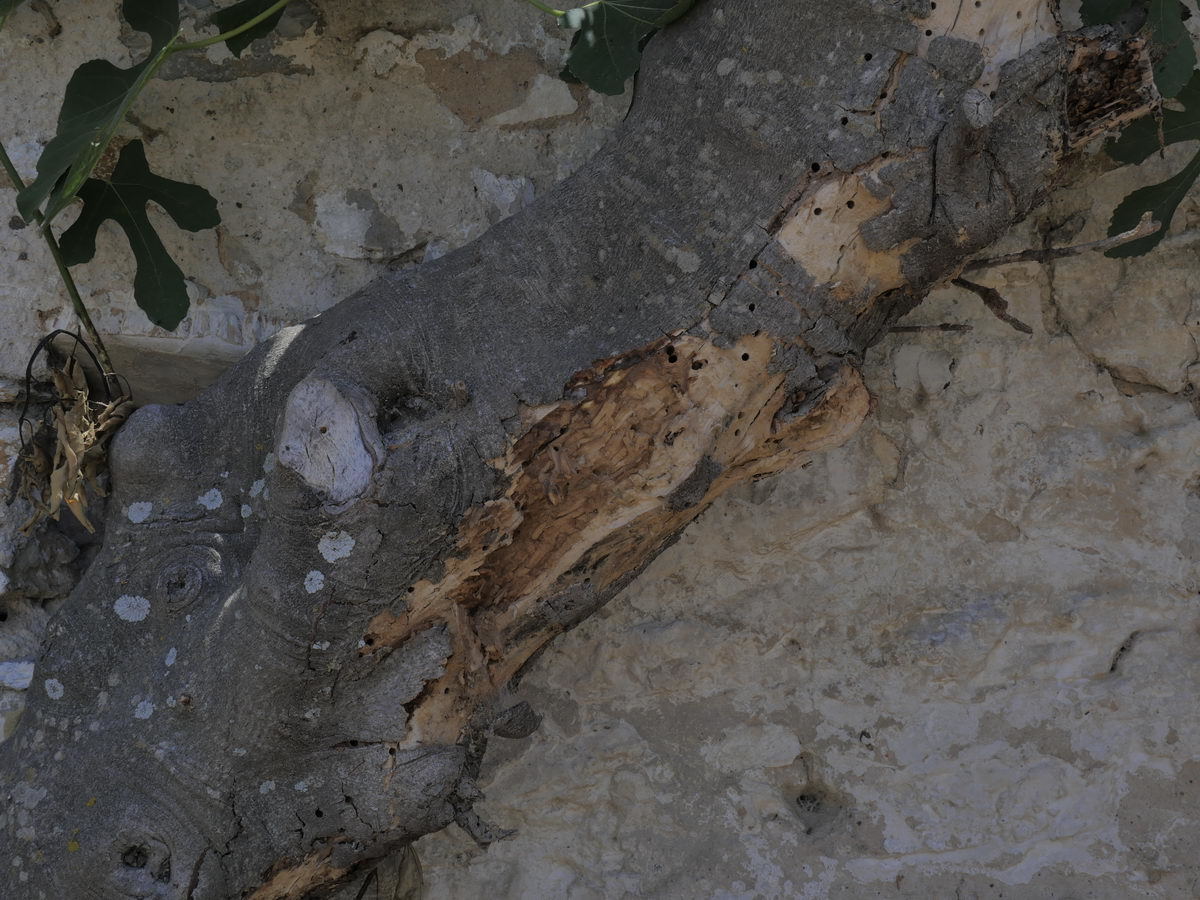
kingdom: Animalia
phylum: Arthropoda
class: Insecta
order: Coleoptera
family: Cerambycidae
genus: Xylotrechus
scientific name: Xylotrechus smei
